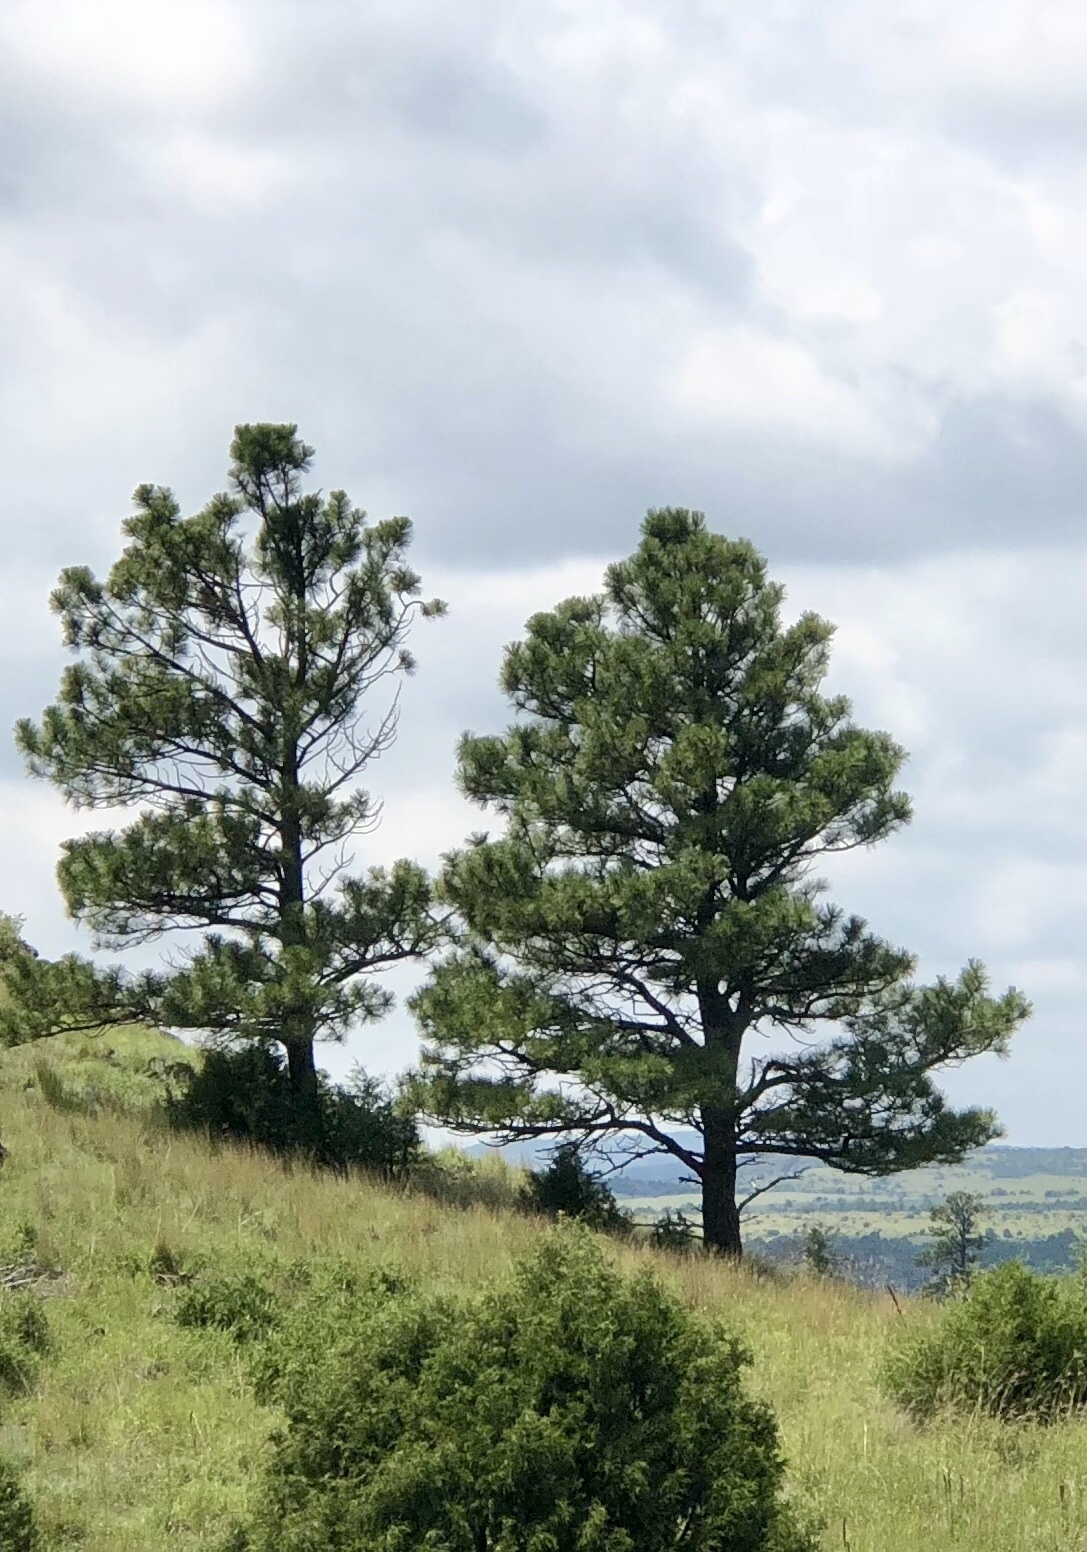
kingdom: Plantae
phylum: Tracheophyta
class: Pinopsida
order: Pinales
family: Pinaceae
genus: Pinus
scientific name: Pinus ponderosa
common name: Western yellow-pine
